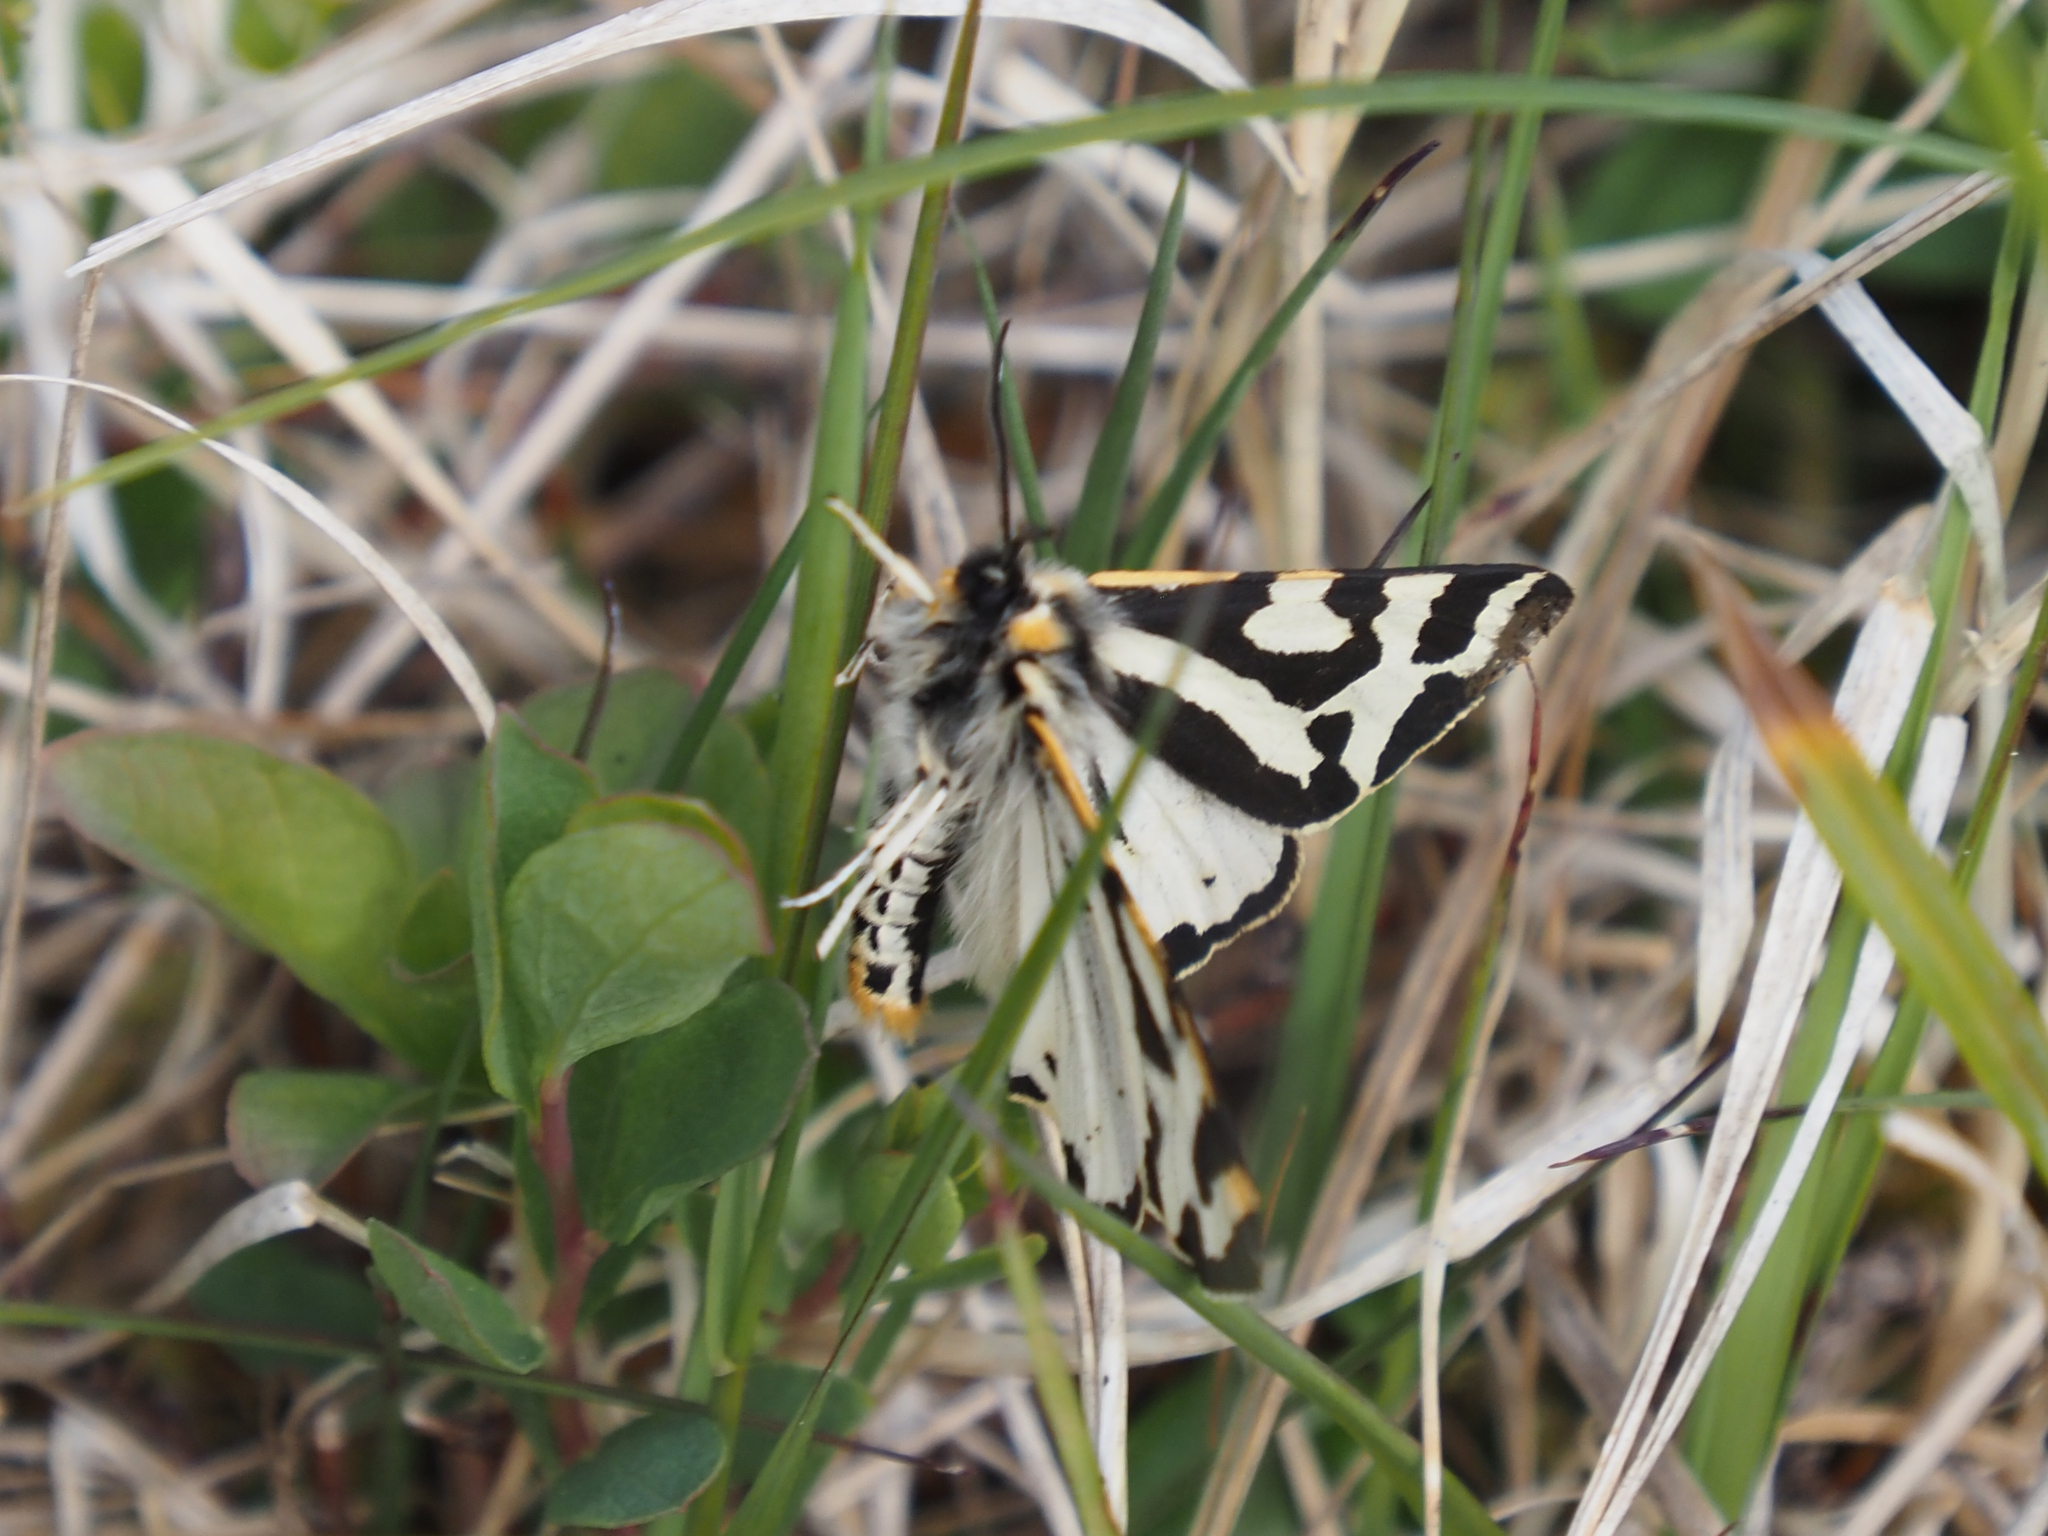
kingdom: Animalia
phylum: Arthropoda
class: Insecta
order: Lepidoptera
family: Erebidae
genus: Parasemia
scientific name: Parasemia plantaginis
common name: Wood tiger
